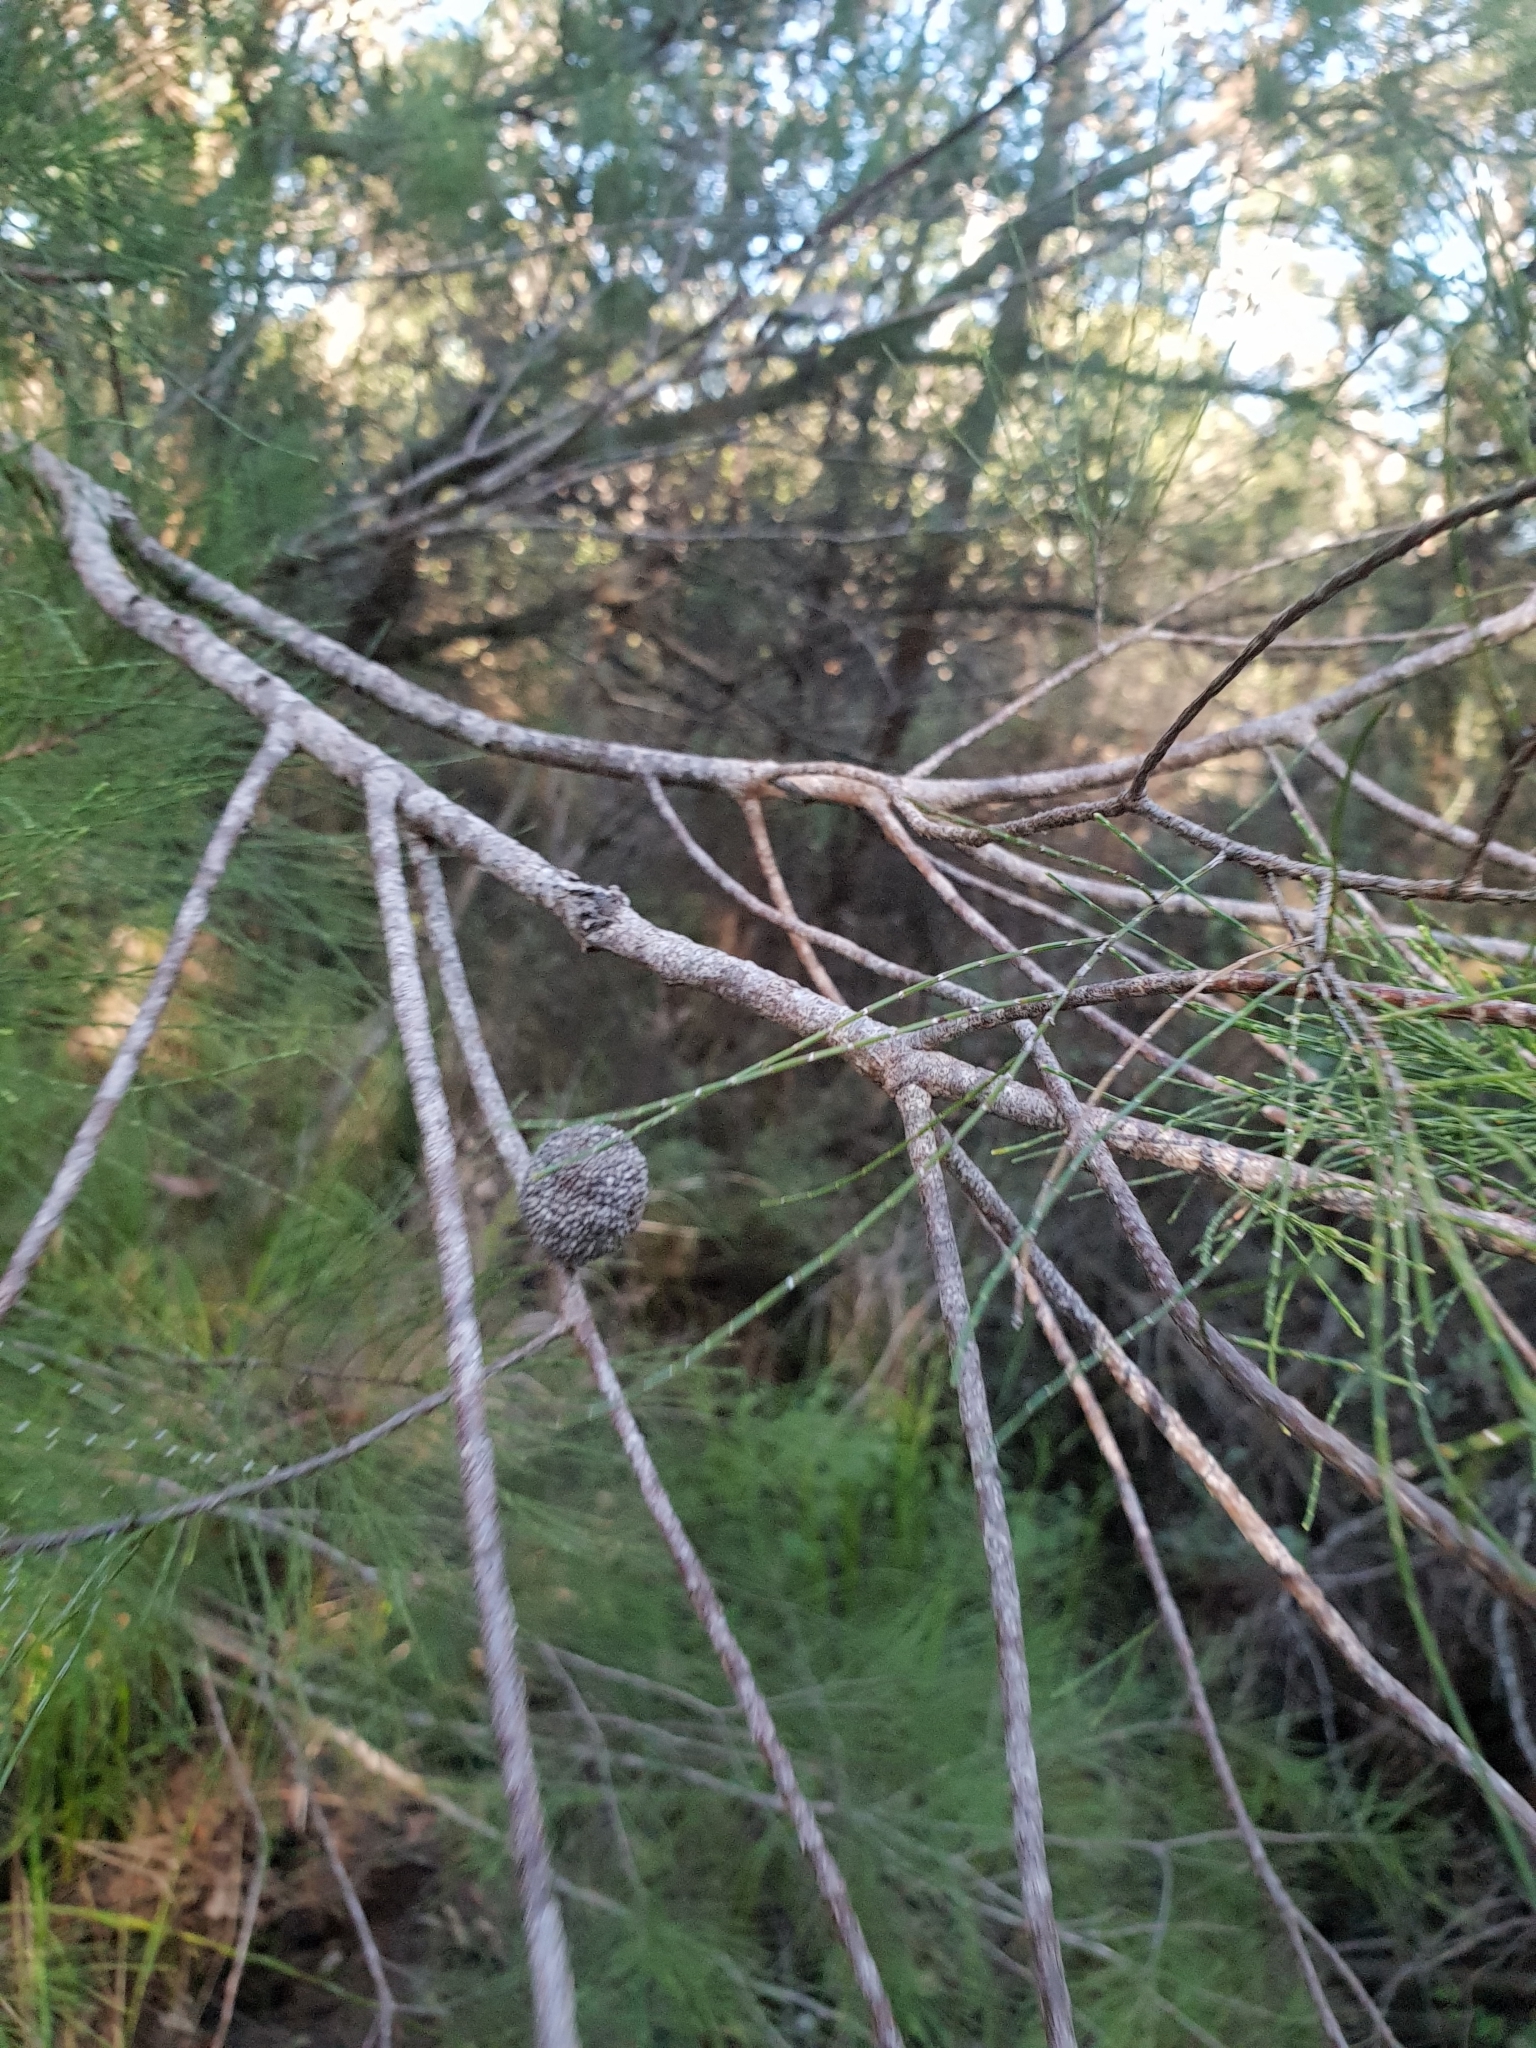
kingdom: Plantae
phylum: Tracheophyta
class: Magnoliopsida
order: Fagales
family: Casuarinaceae
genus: Allocasuarina
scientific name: Allocasuarina decussata
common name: Karri she-oak
